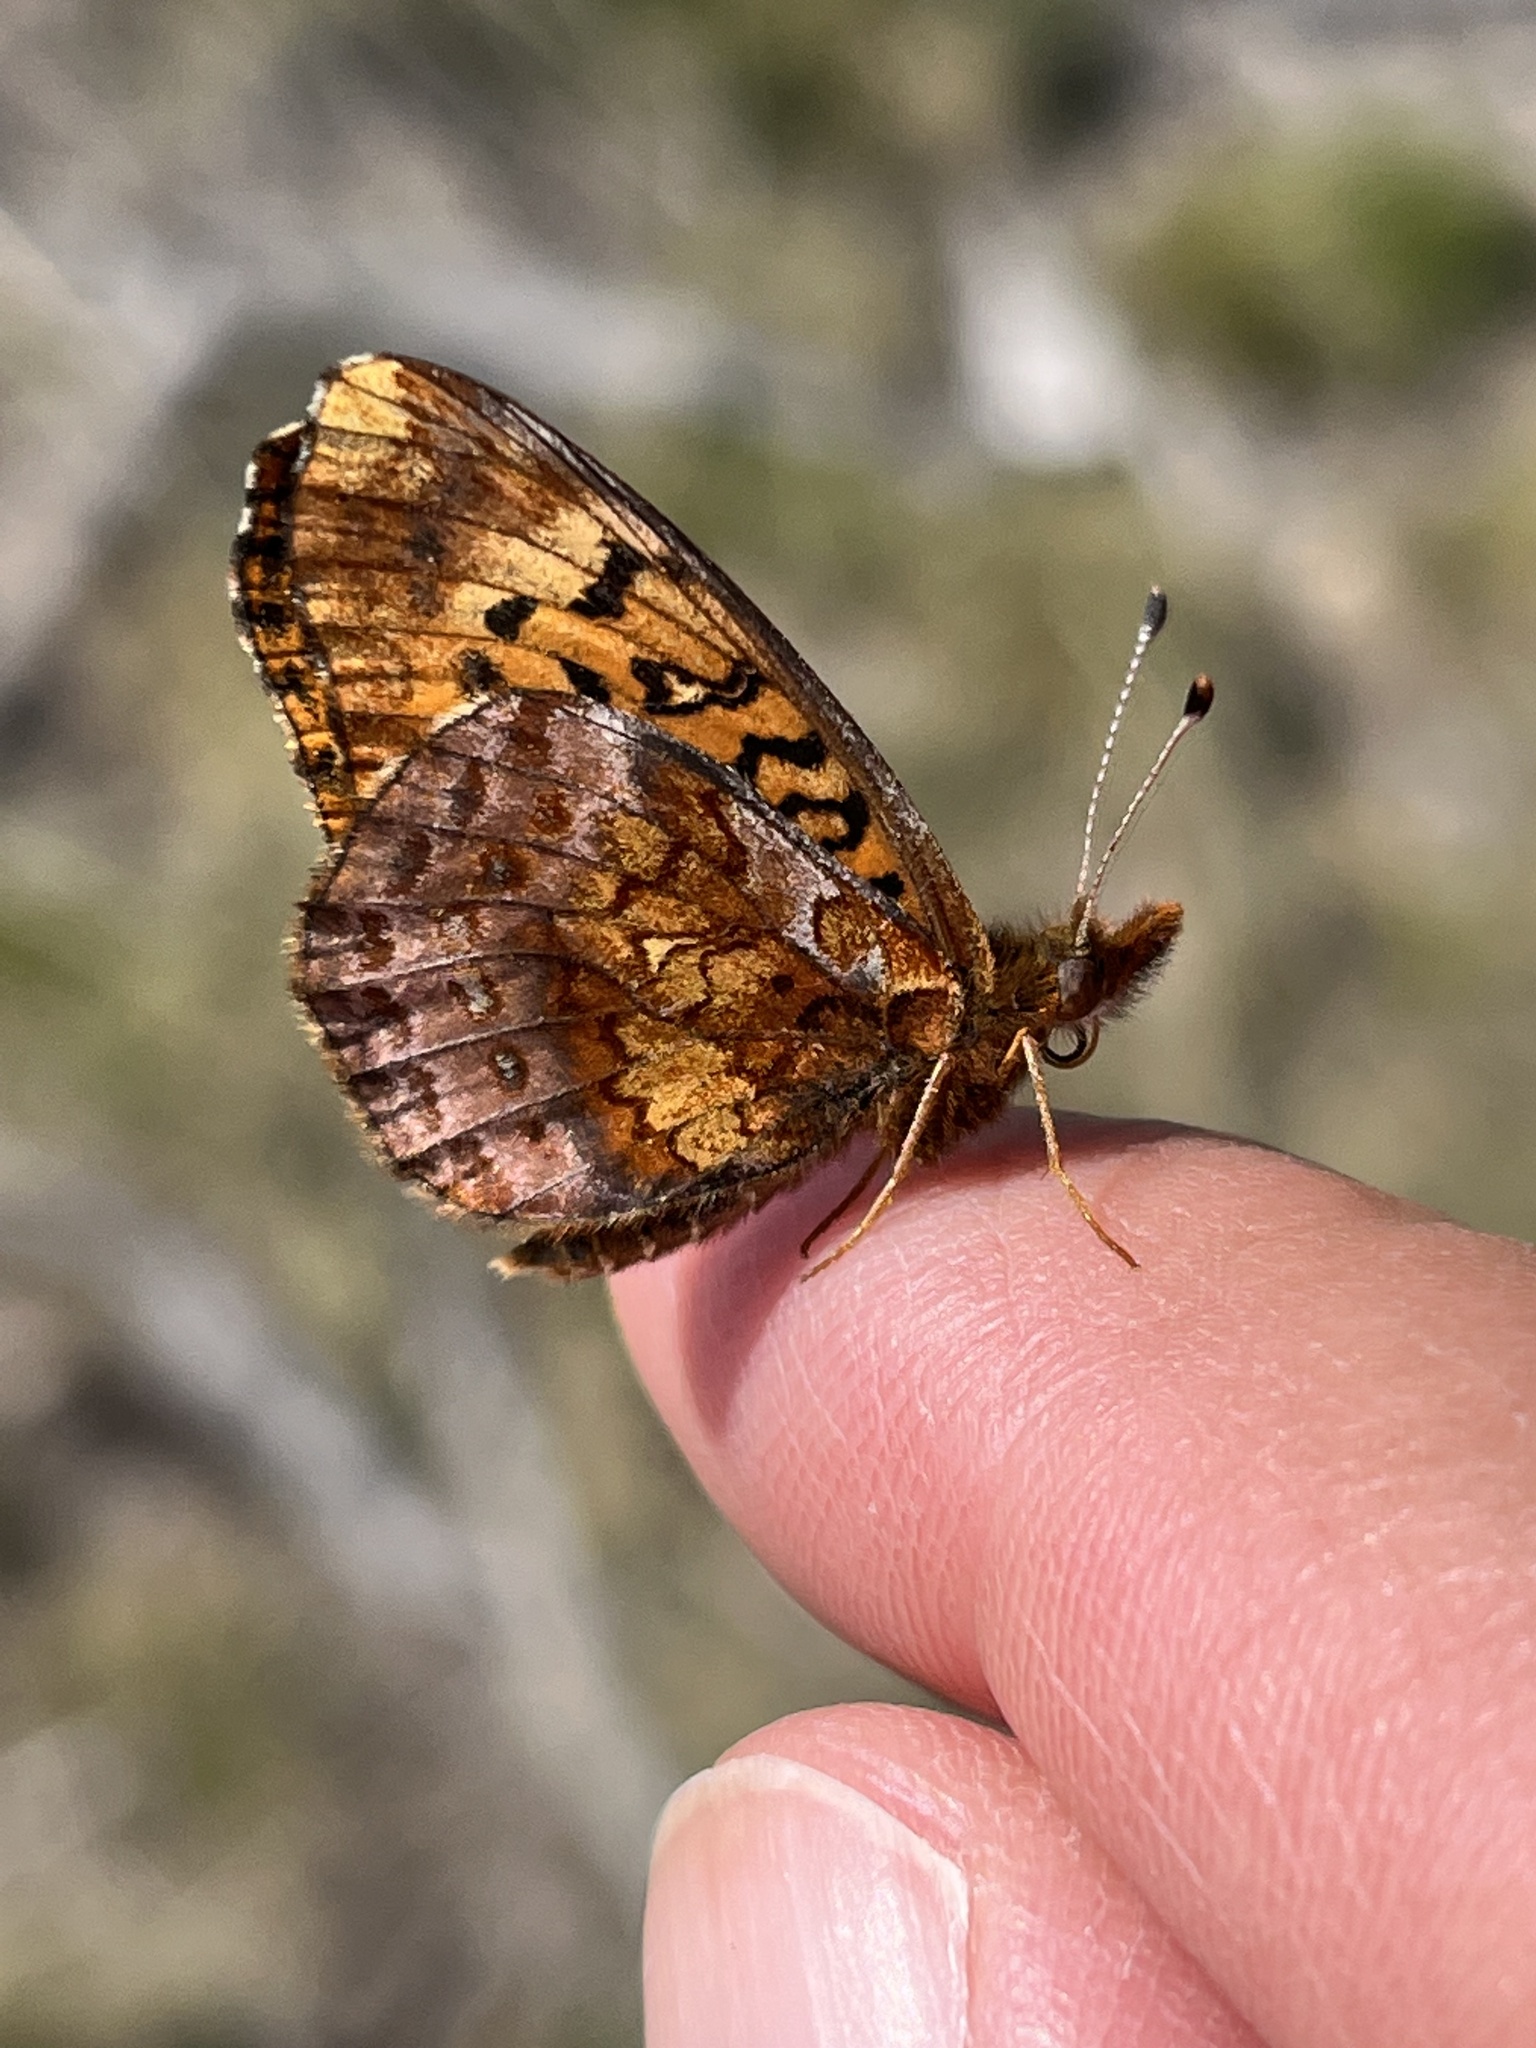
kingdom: Animalia
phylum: Arthropoda
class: Insecta
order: Lepidoptera
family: Nymphalidae
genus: Clossiana
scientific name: Clossiana toddi
